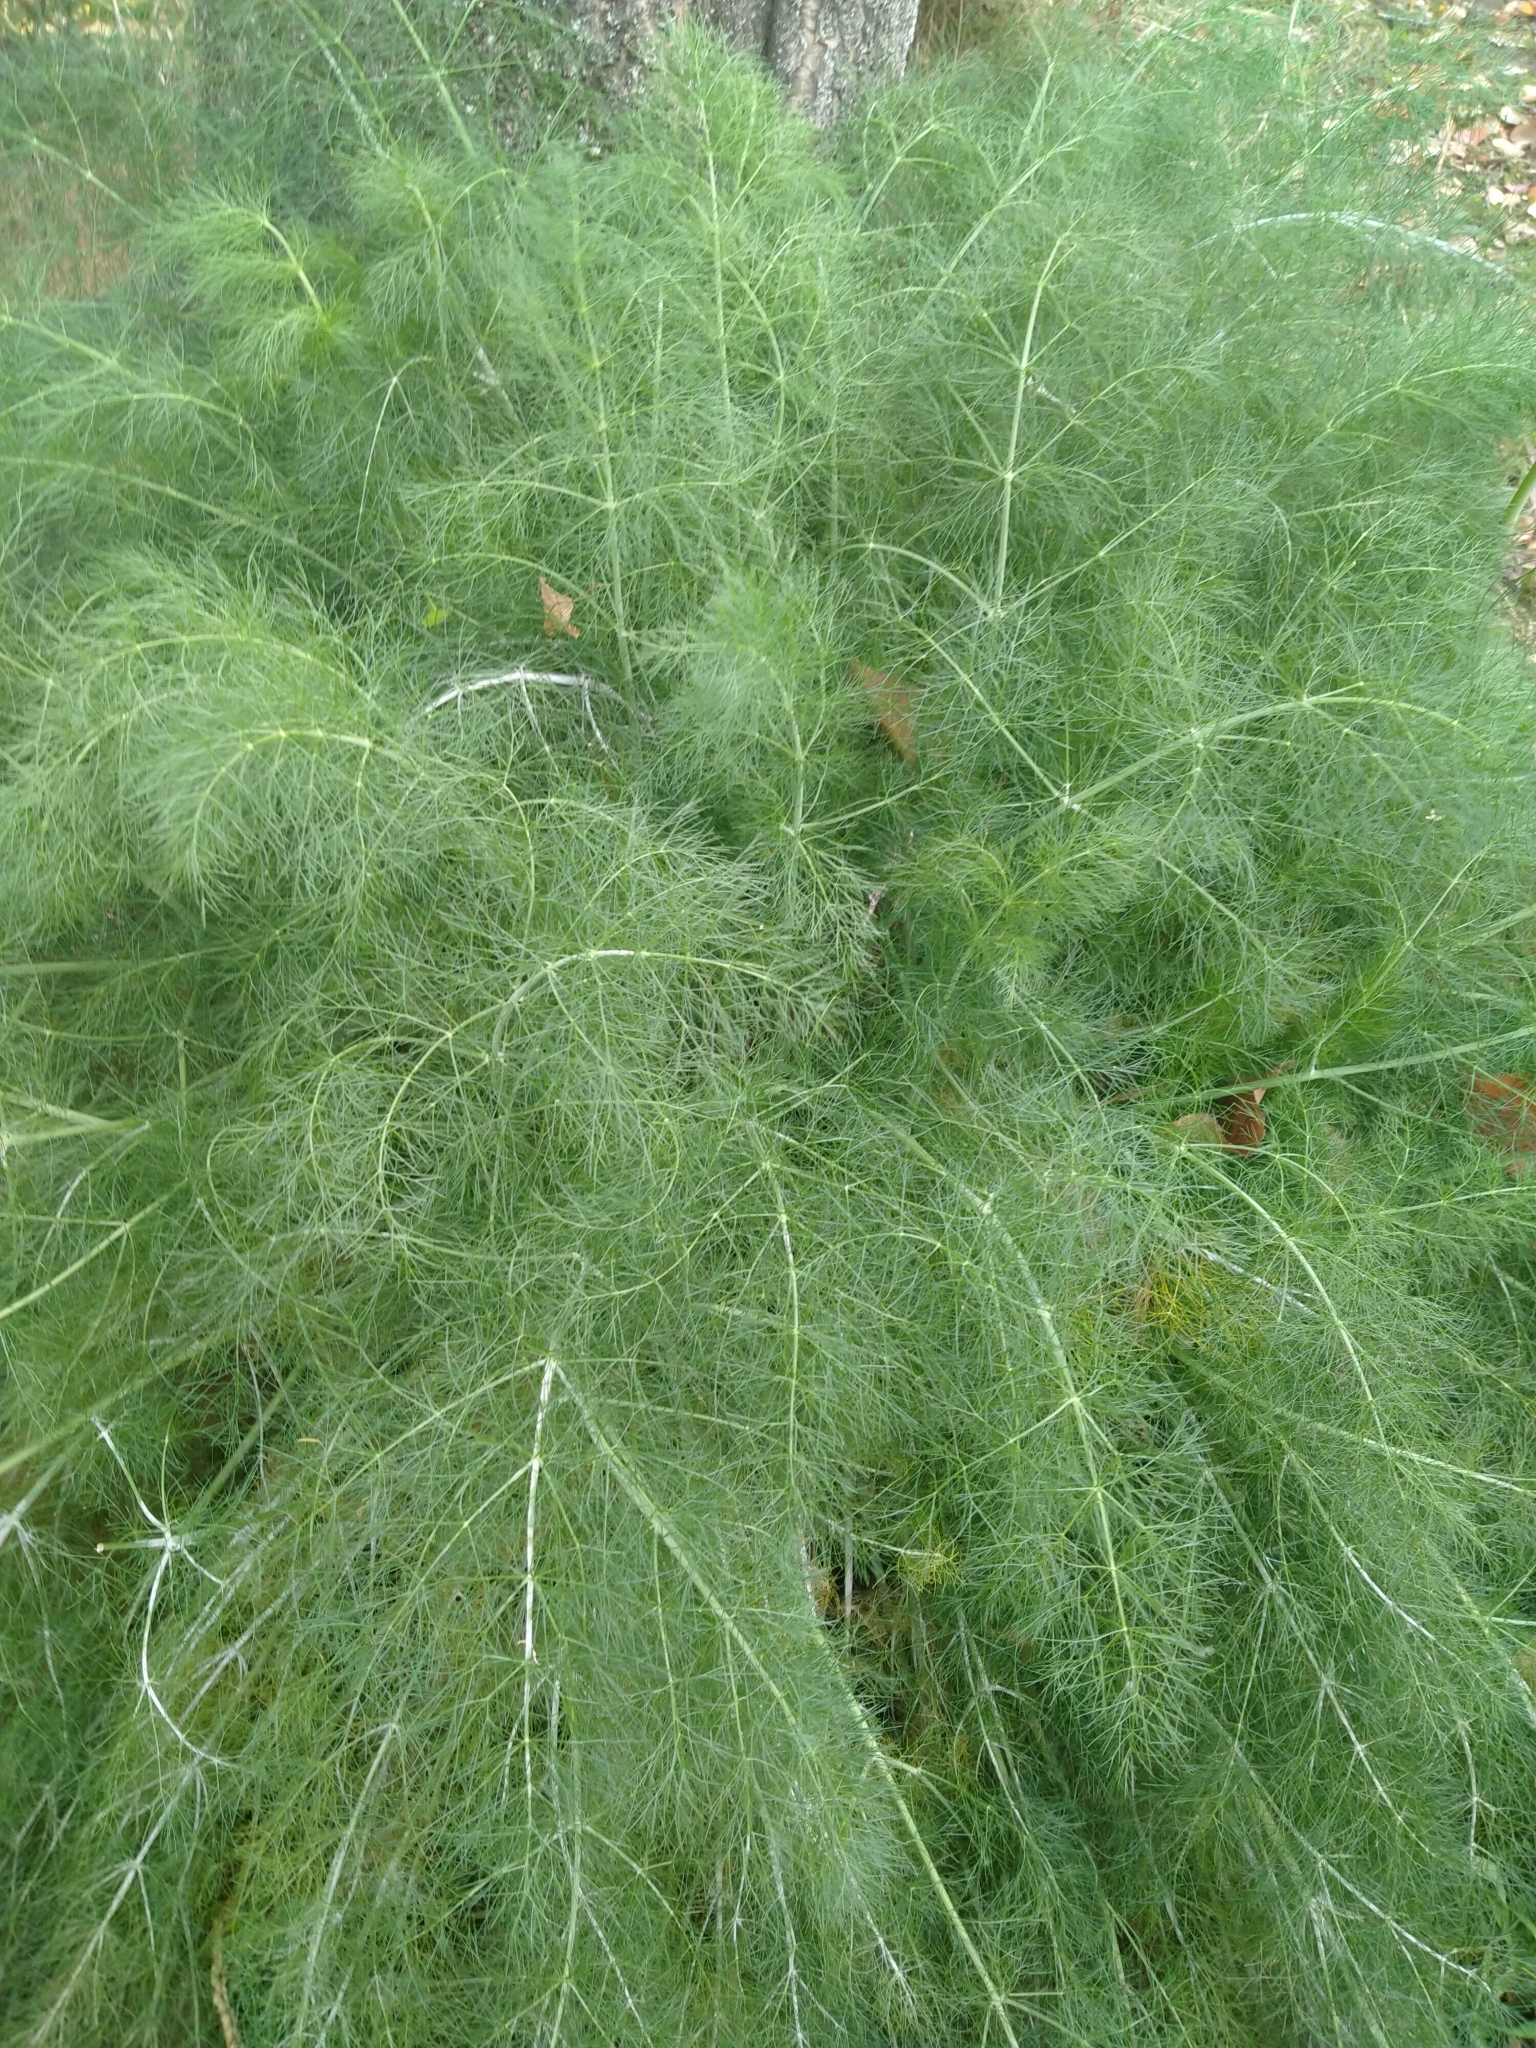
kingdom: Plantae
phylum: Tracheophyta
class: Magnoliopsida
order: Apiales
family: Apiaceae
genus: Foeniculum
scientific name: Foeniculum vulgare
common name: Fennel
